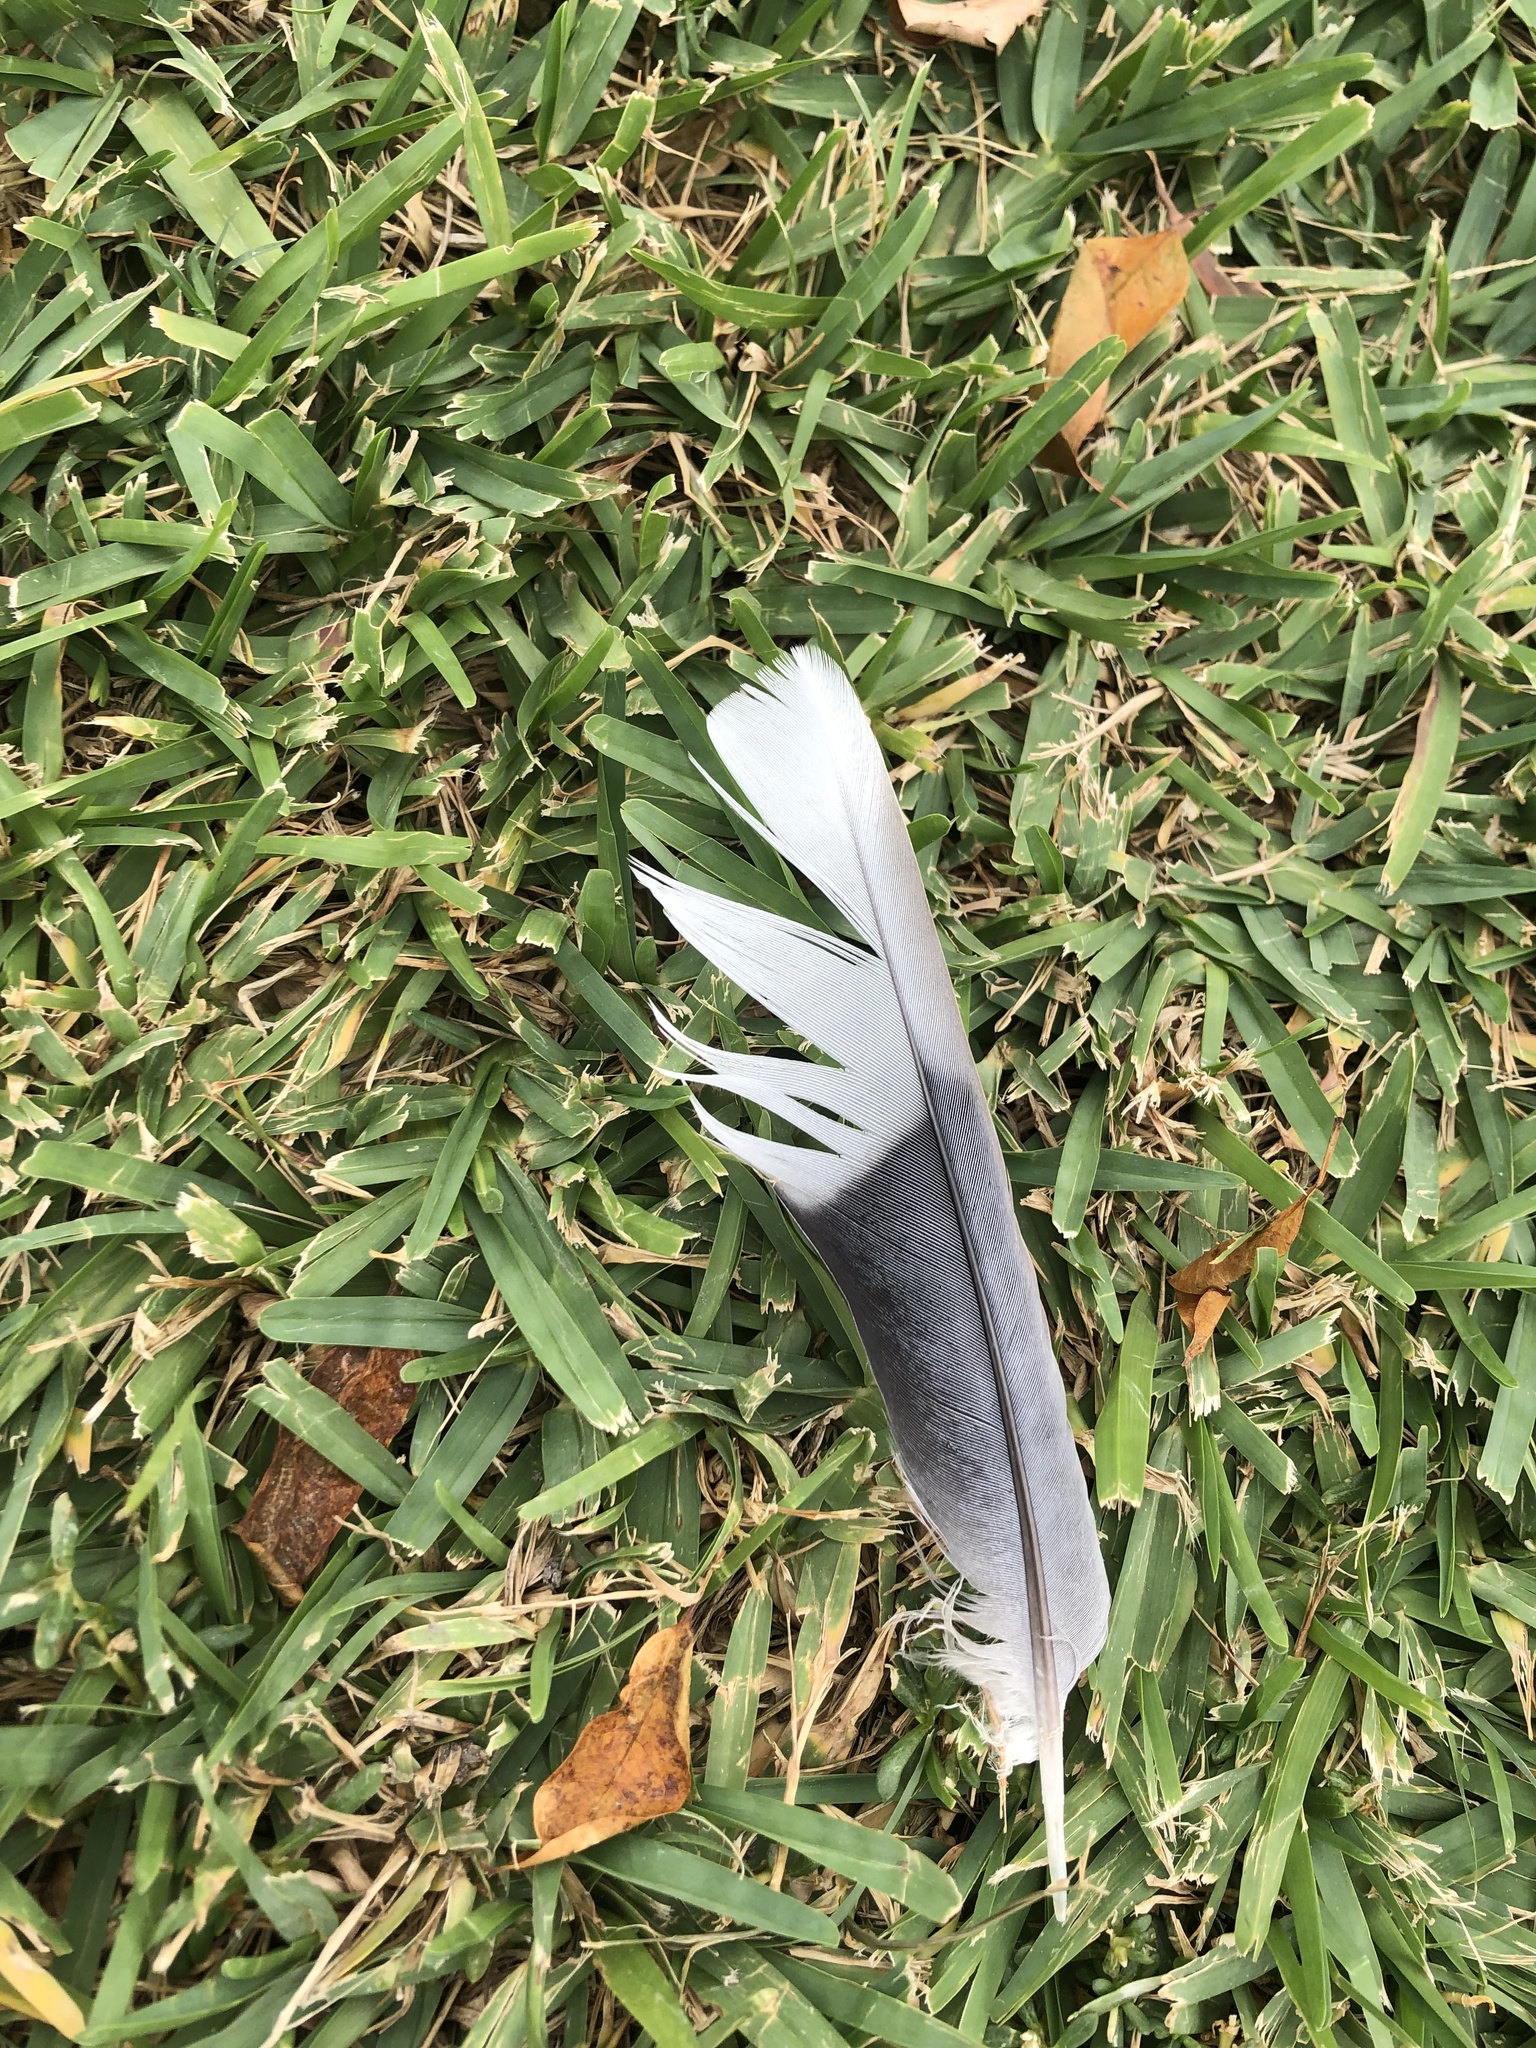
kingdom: Animalia
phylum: Chordata
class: Aves
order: Columbiformes
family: Columbidae
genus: Streptopelia
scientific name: Streptopelia decaocto
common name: Eurasian collared dove
